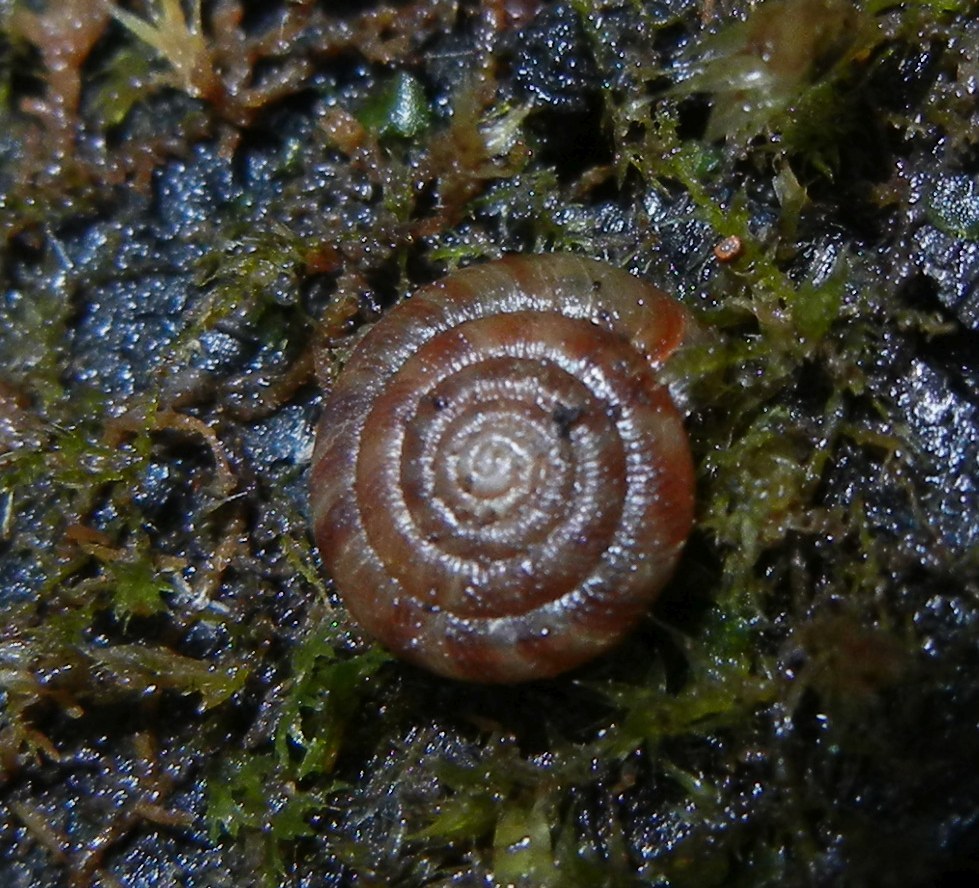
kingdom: Animalia
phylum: Mollusca
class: Gastropoda
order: Stylommatophora
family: Discidae
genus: Discus
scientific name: Discus rotundatus
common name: Rounded snail
